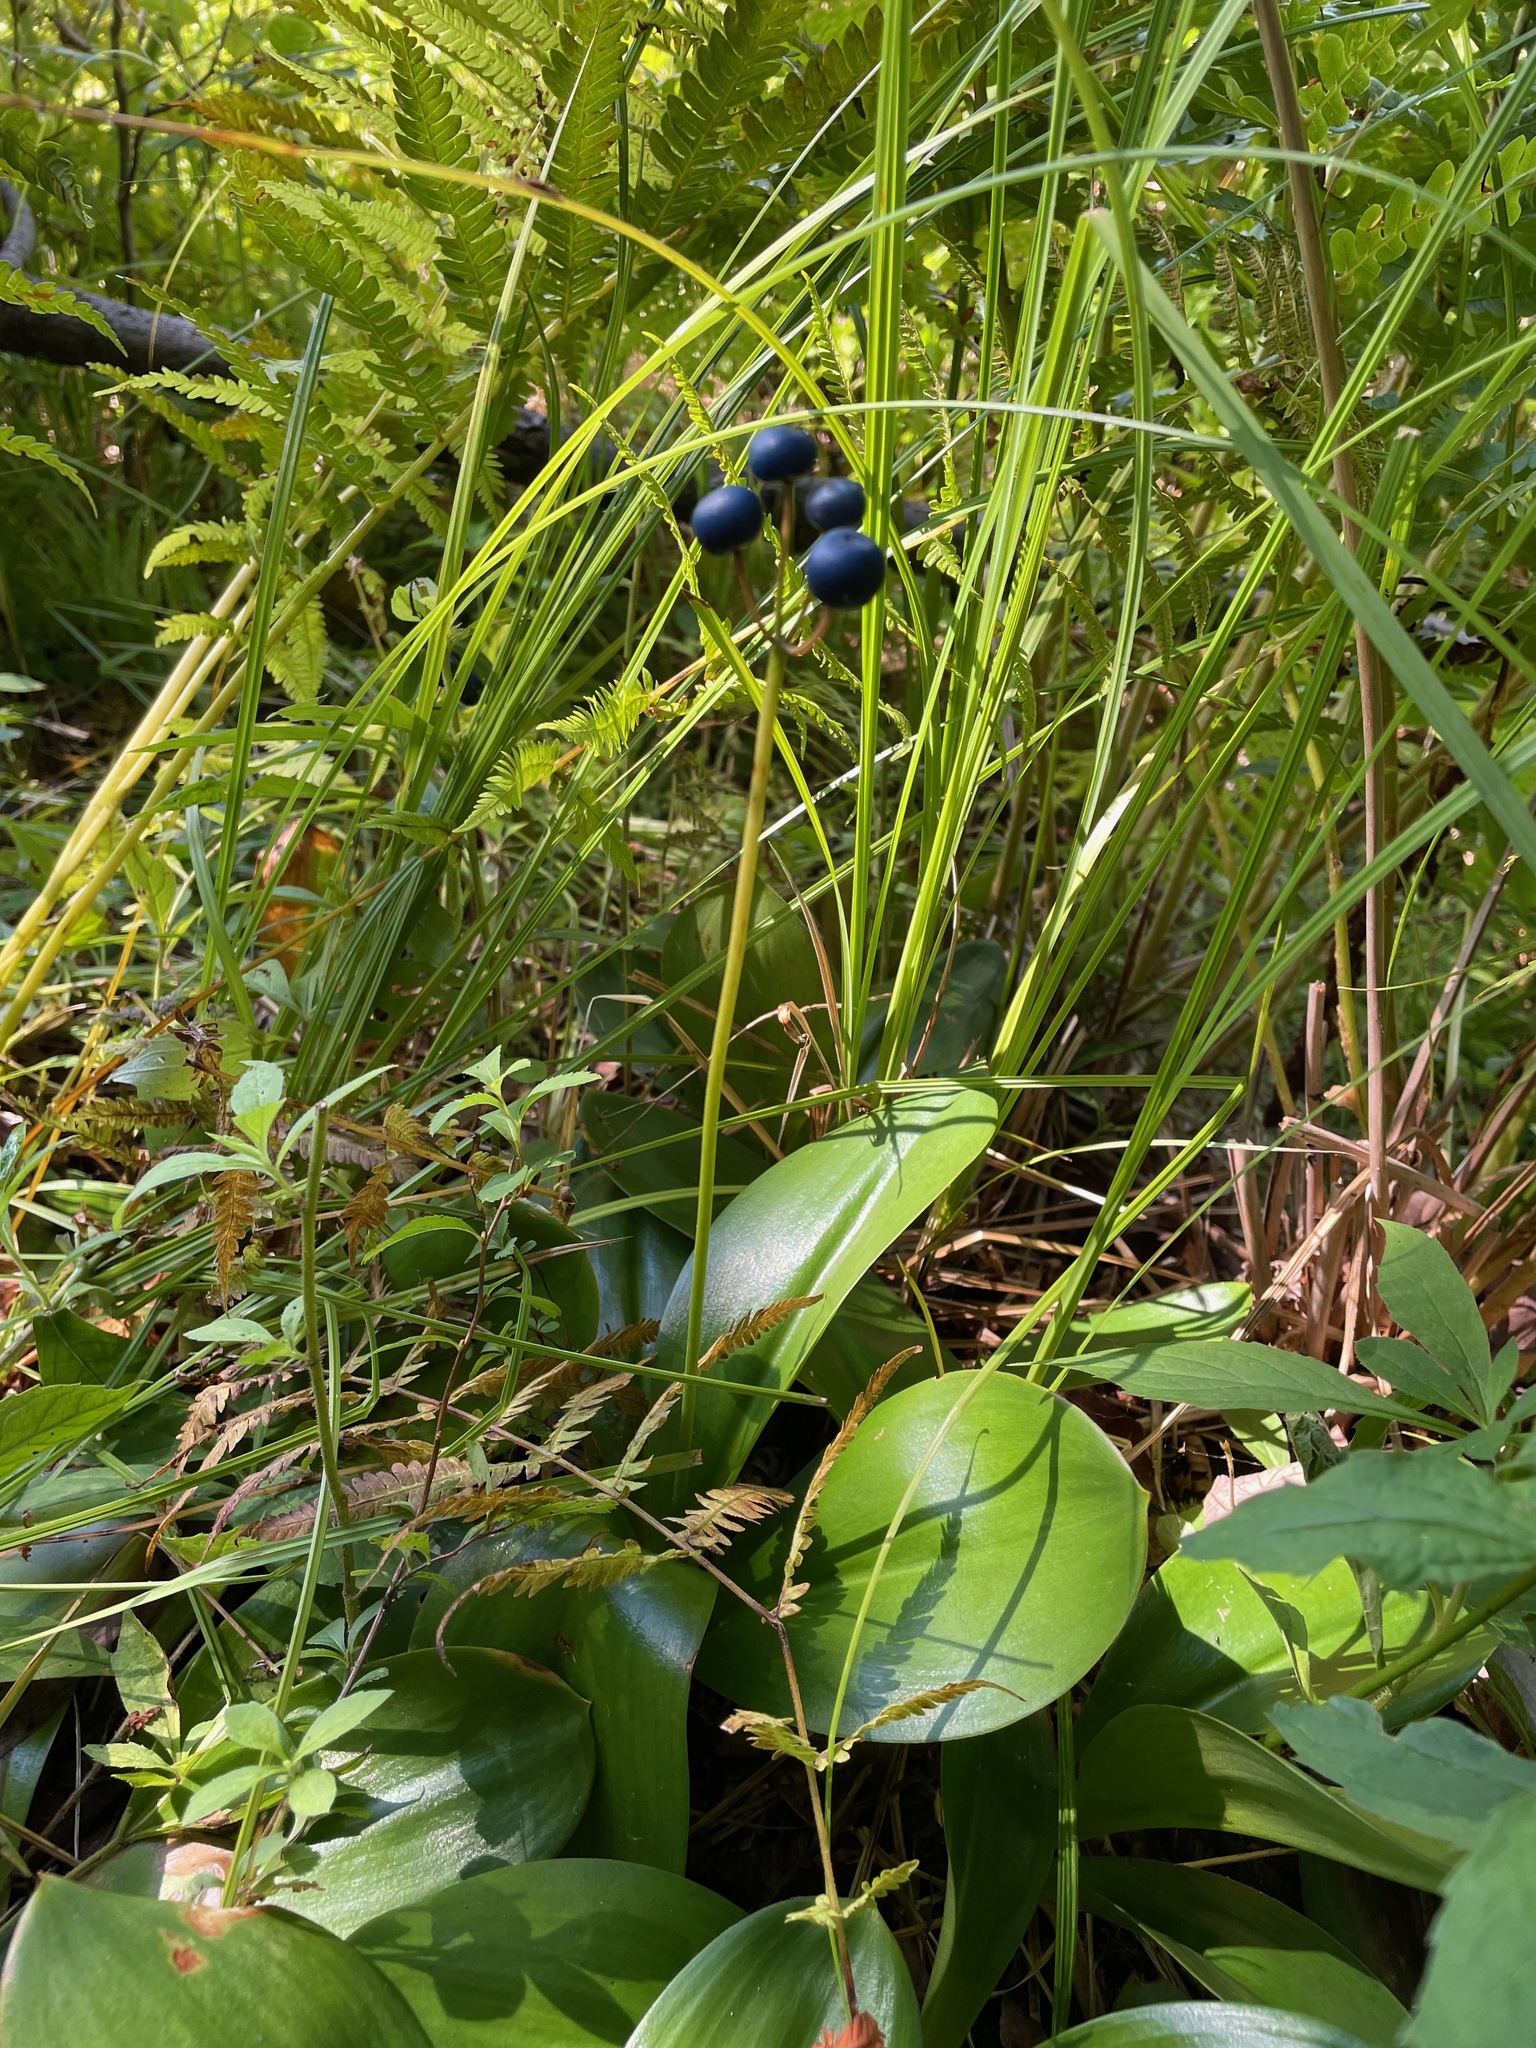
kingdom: Plantae
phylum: Tracheophyta
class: Liliopsida
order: Liliales
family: Liliaceae
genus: Clintonia
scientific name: Clintonia borealis
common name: Yellow clintonia
